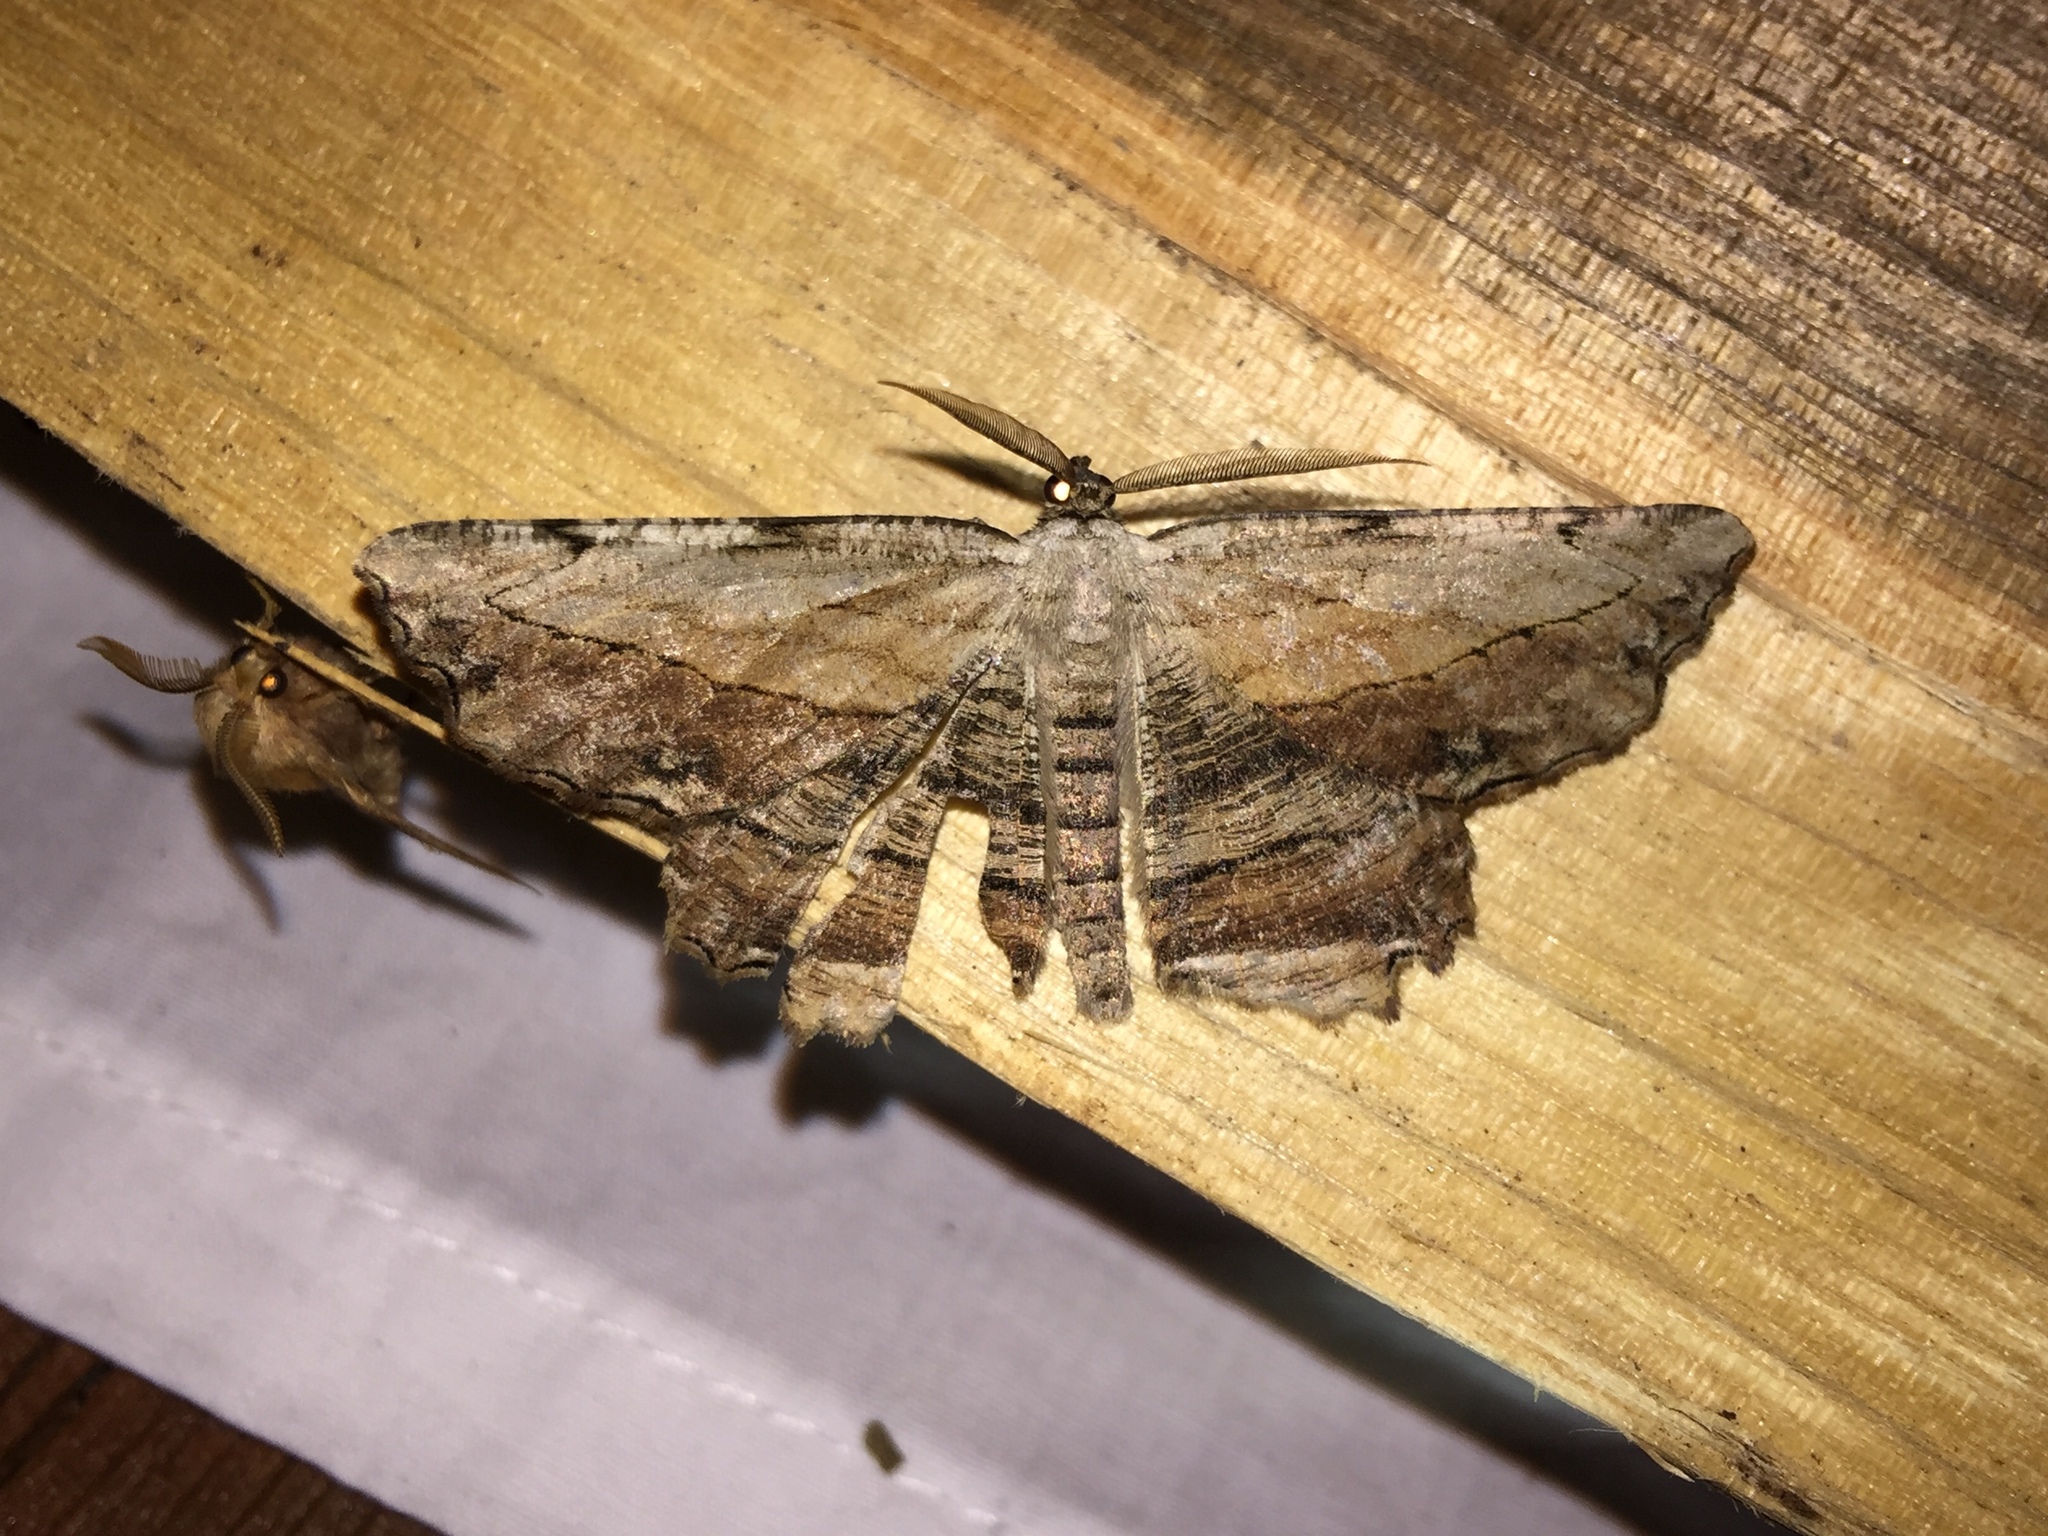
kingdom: Animalia
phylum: Arthropoda
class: Insecta
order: Lepidoptera
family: Geometridae
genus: Lytrosis
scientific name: Lytrosis unitaria
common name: Common lytrosis
